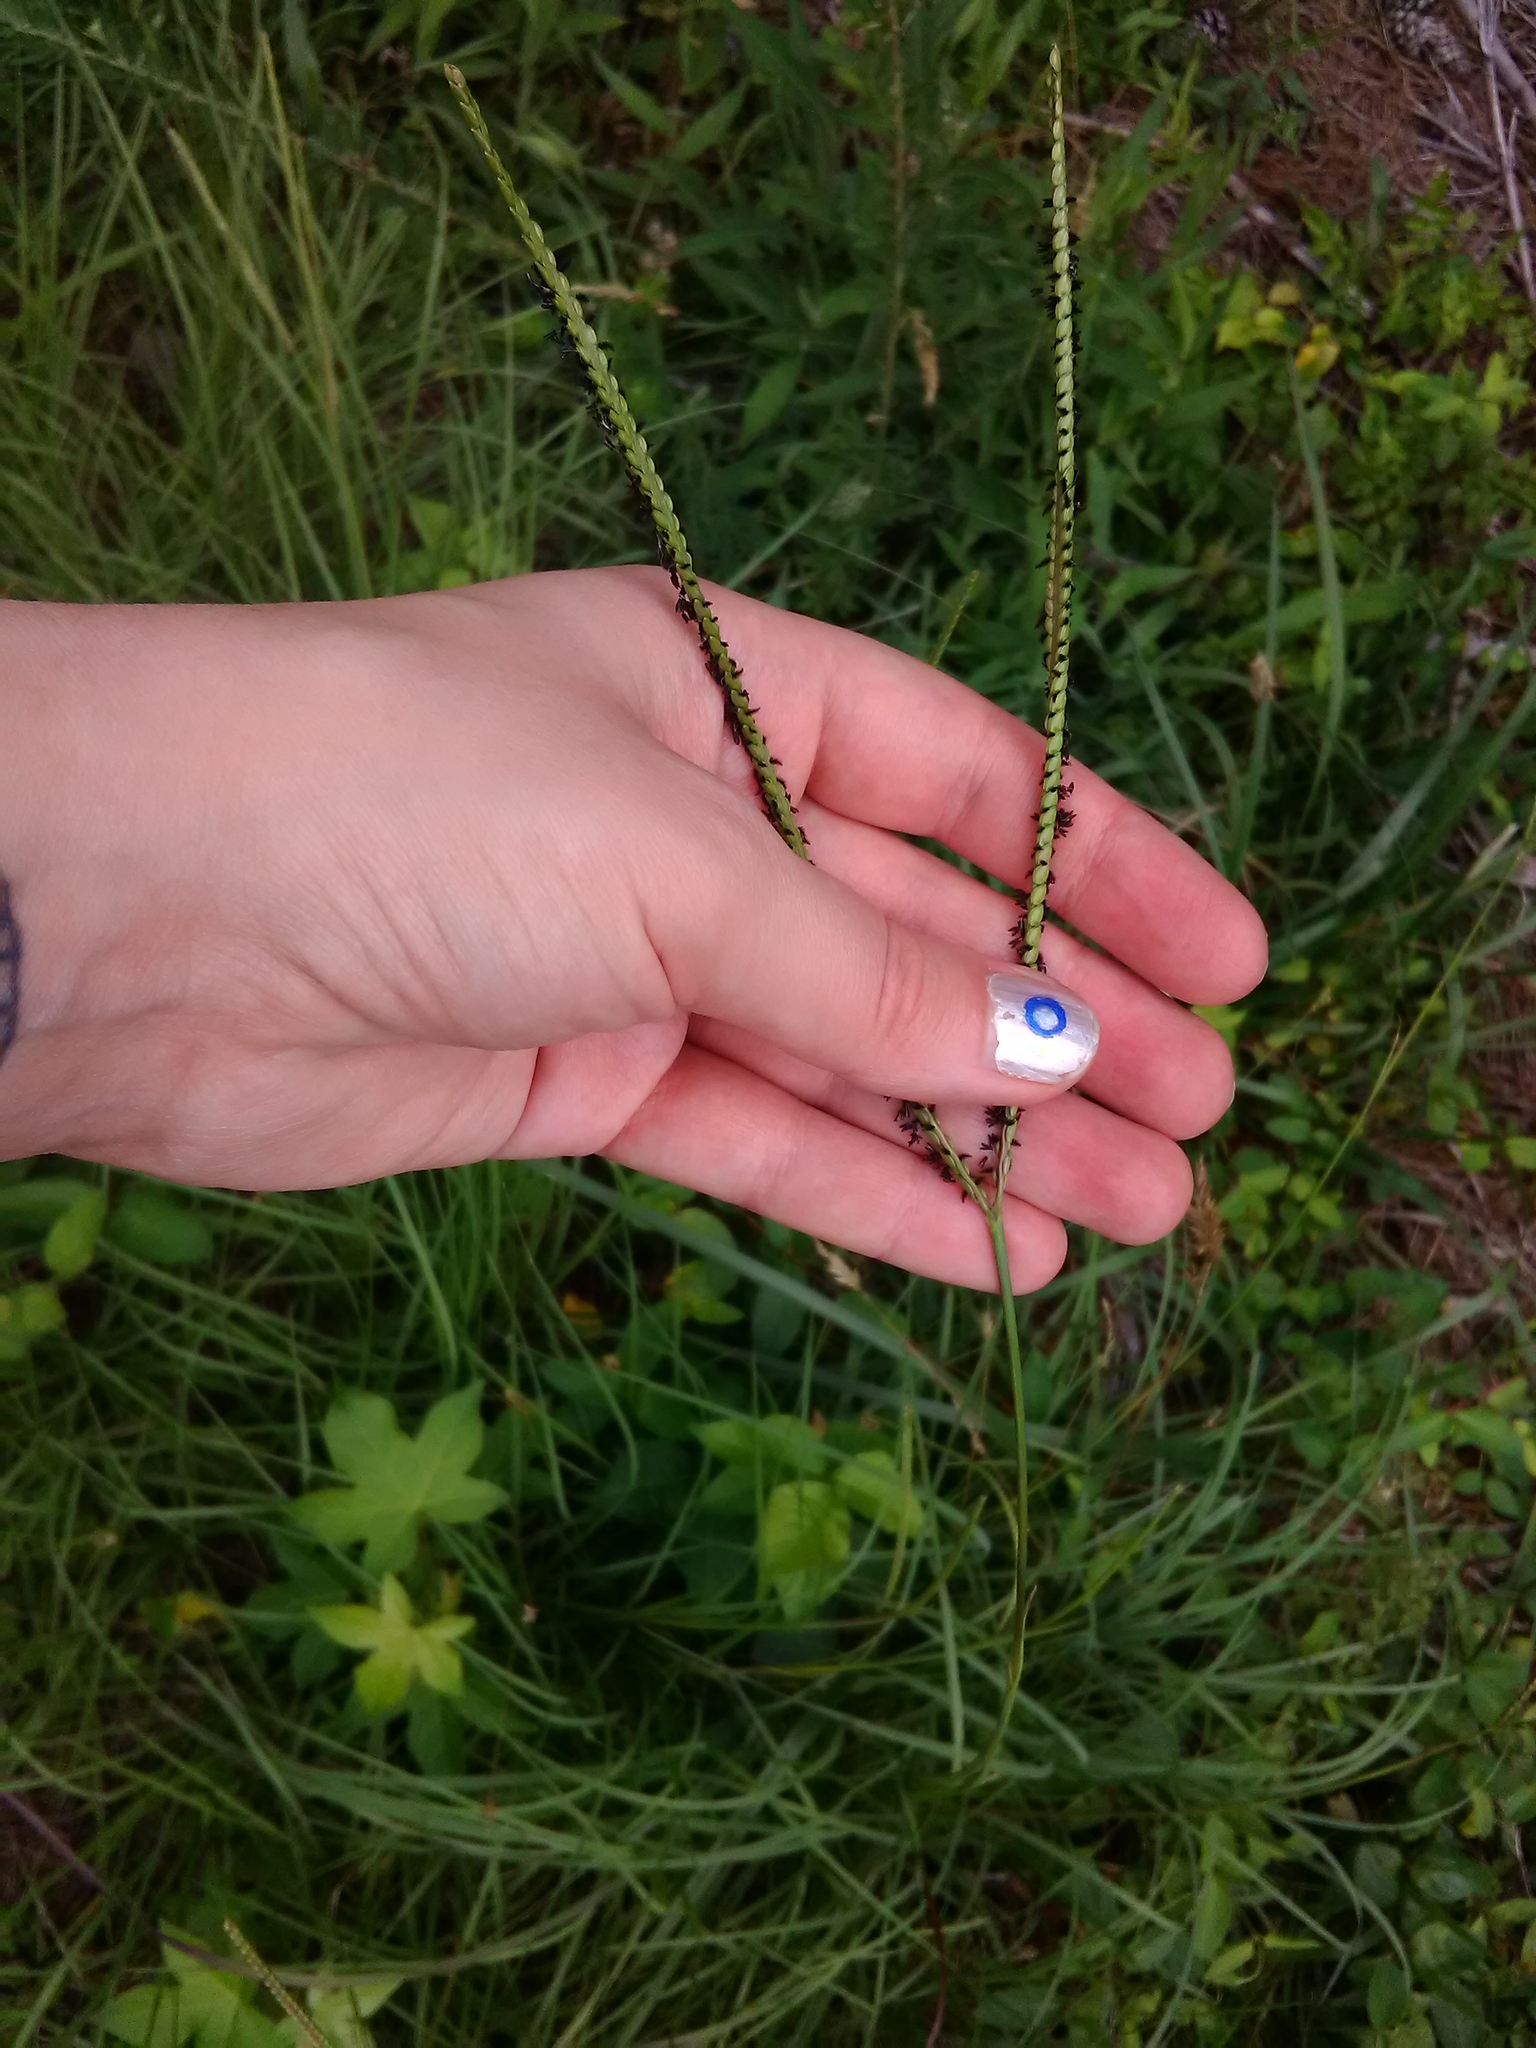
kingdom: Plantae
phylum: Tracheophyta
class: Liliopsida
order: Poales
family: Poaceae
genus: Paspalum
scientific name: Paspalum notatum
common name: Bahiagrass
